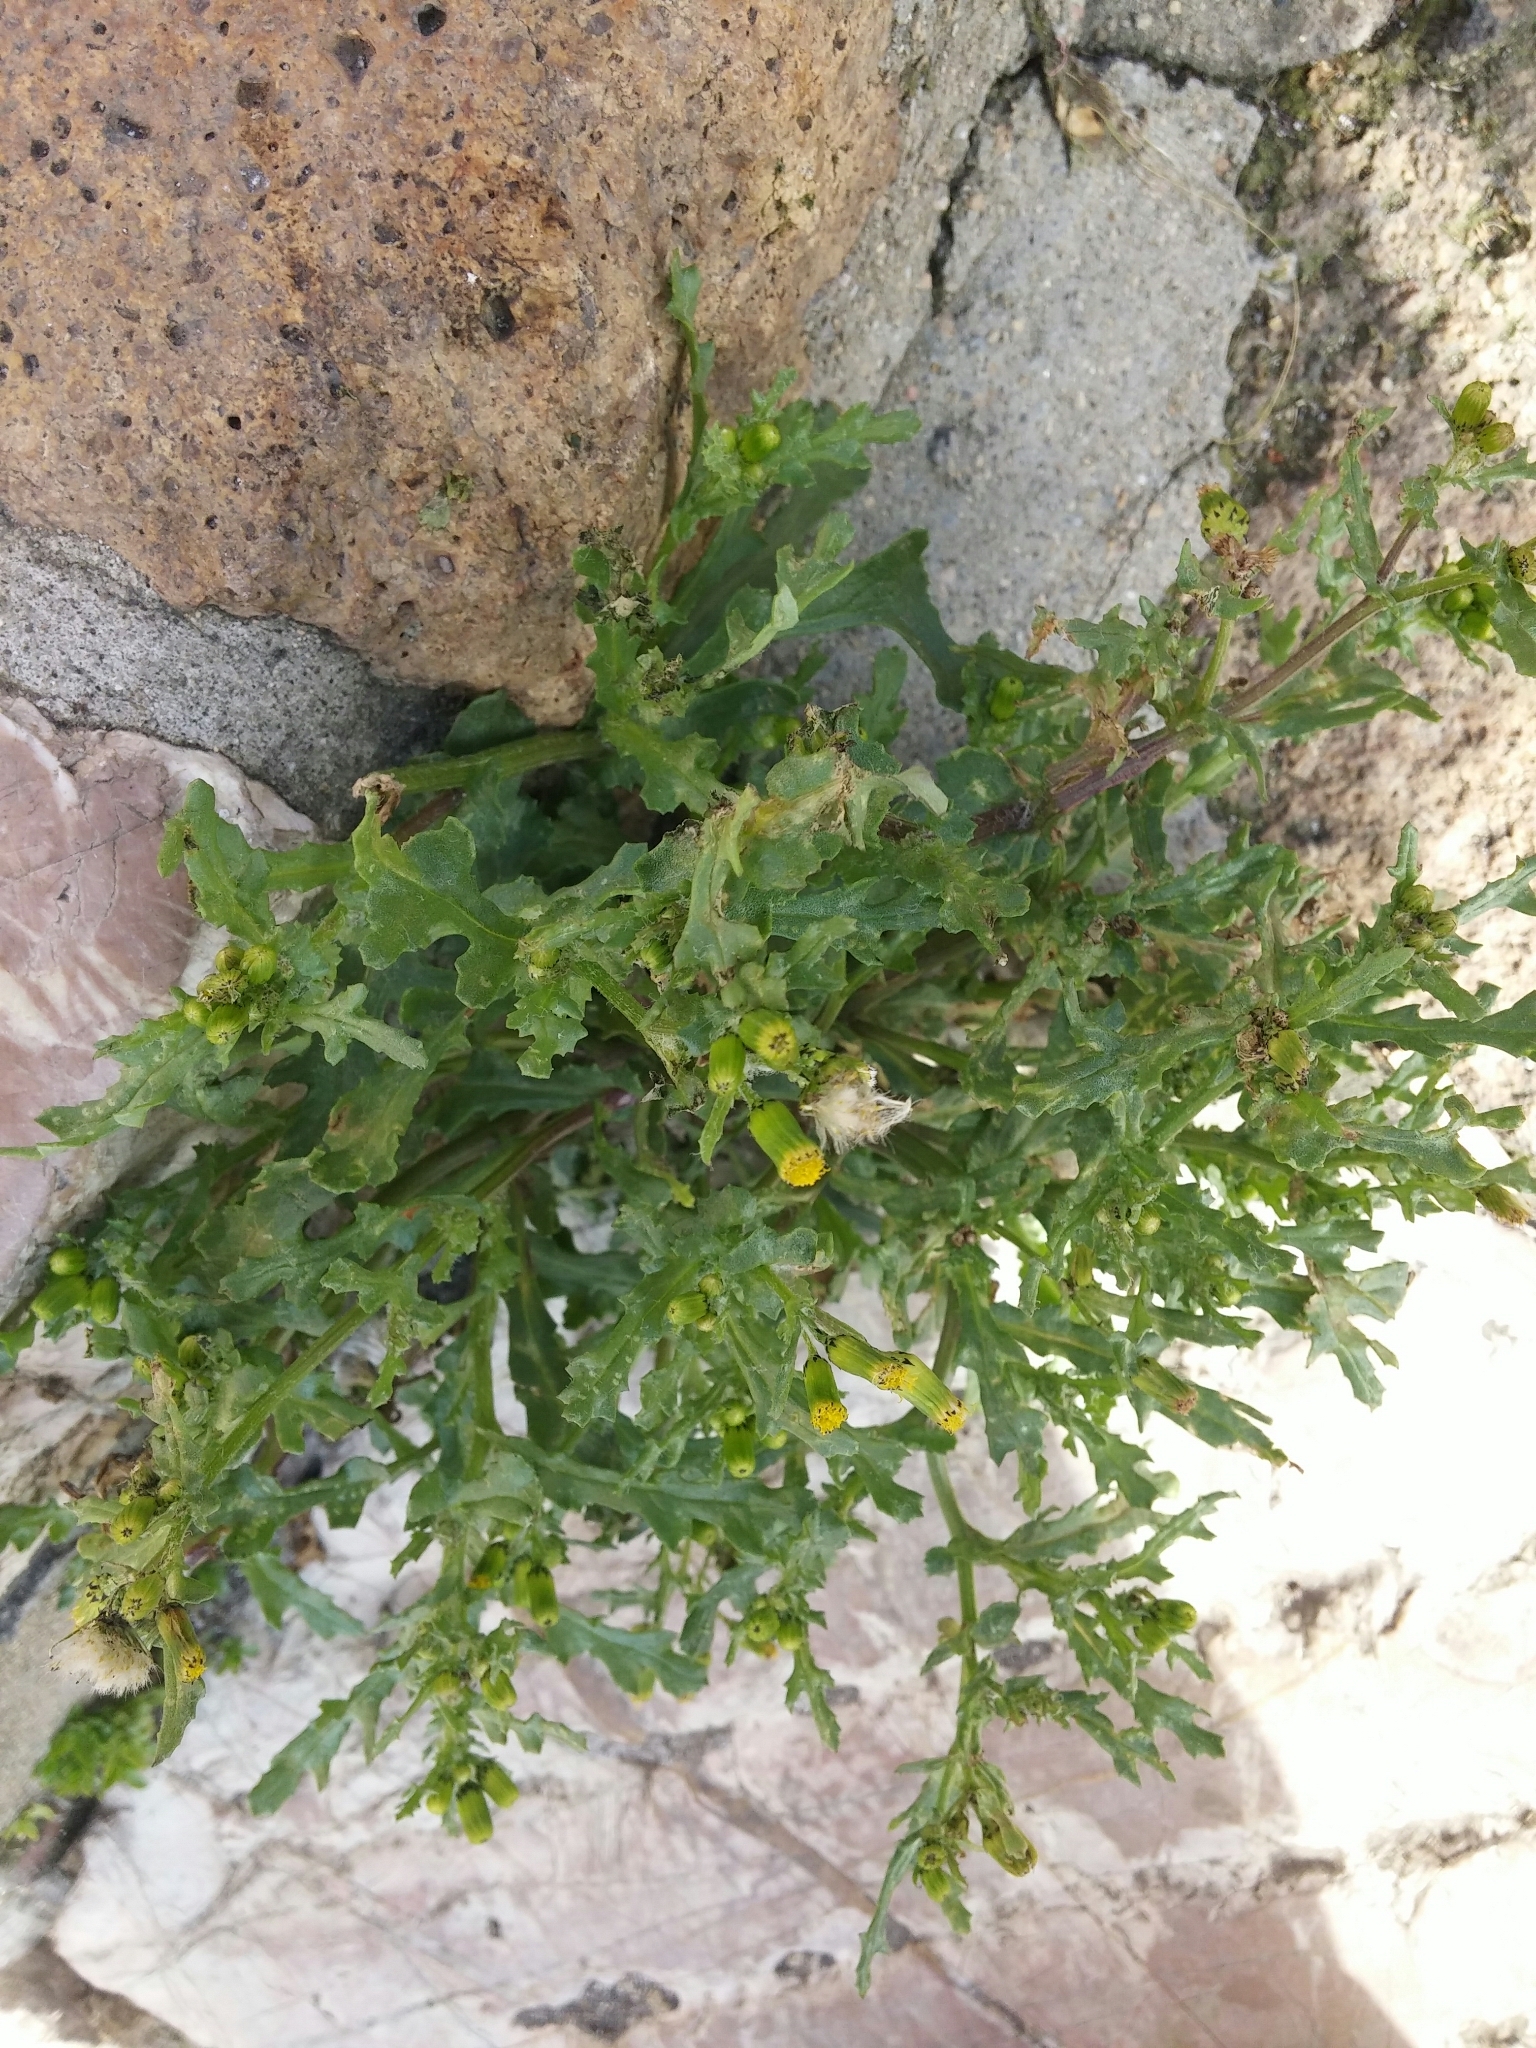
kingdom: Plantae
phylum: Tracheophyta
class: Magnoliopsida
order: Asterales
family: Asteraceae
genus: Senecio
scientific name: Senecio vulgaris
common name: Old-man-in-the-spring
